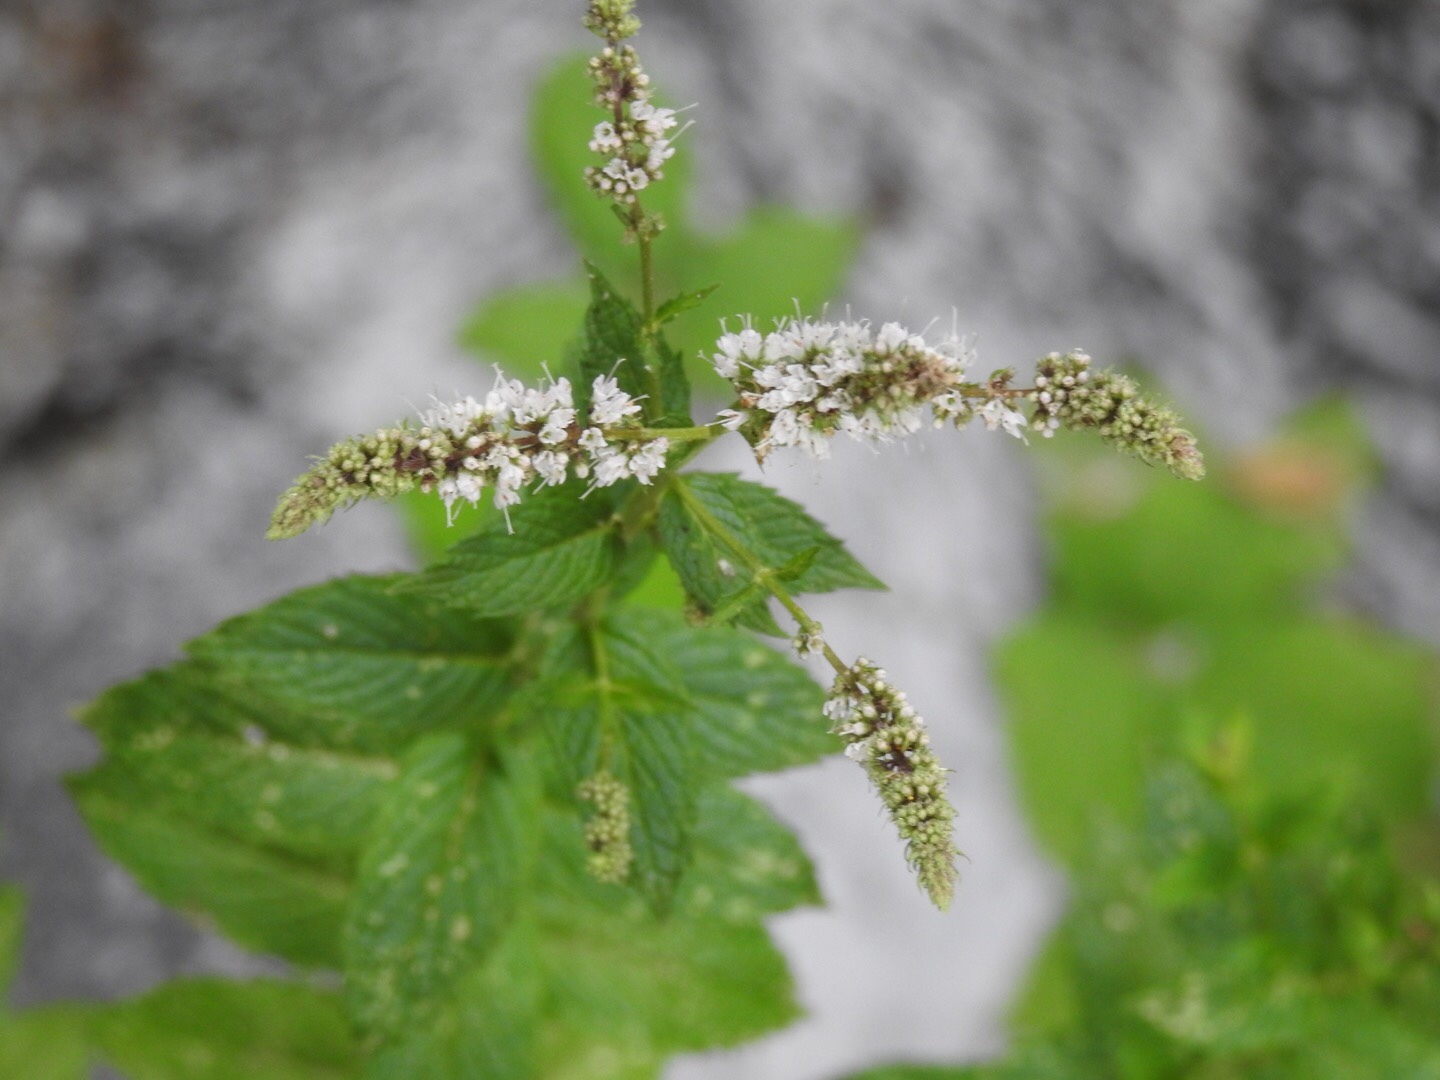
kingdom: Plantae
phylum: Tracheophyta
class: Magnoliopsida
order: Lamiales
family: Lamiaceae
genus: Mentha
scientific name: Mentha spicata
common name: Spearmint
